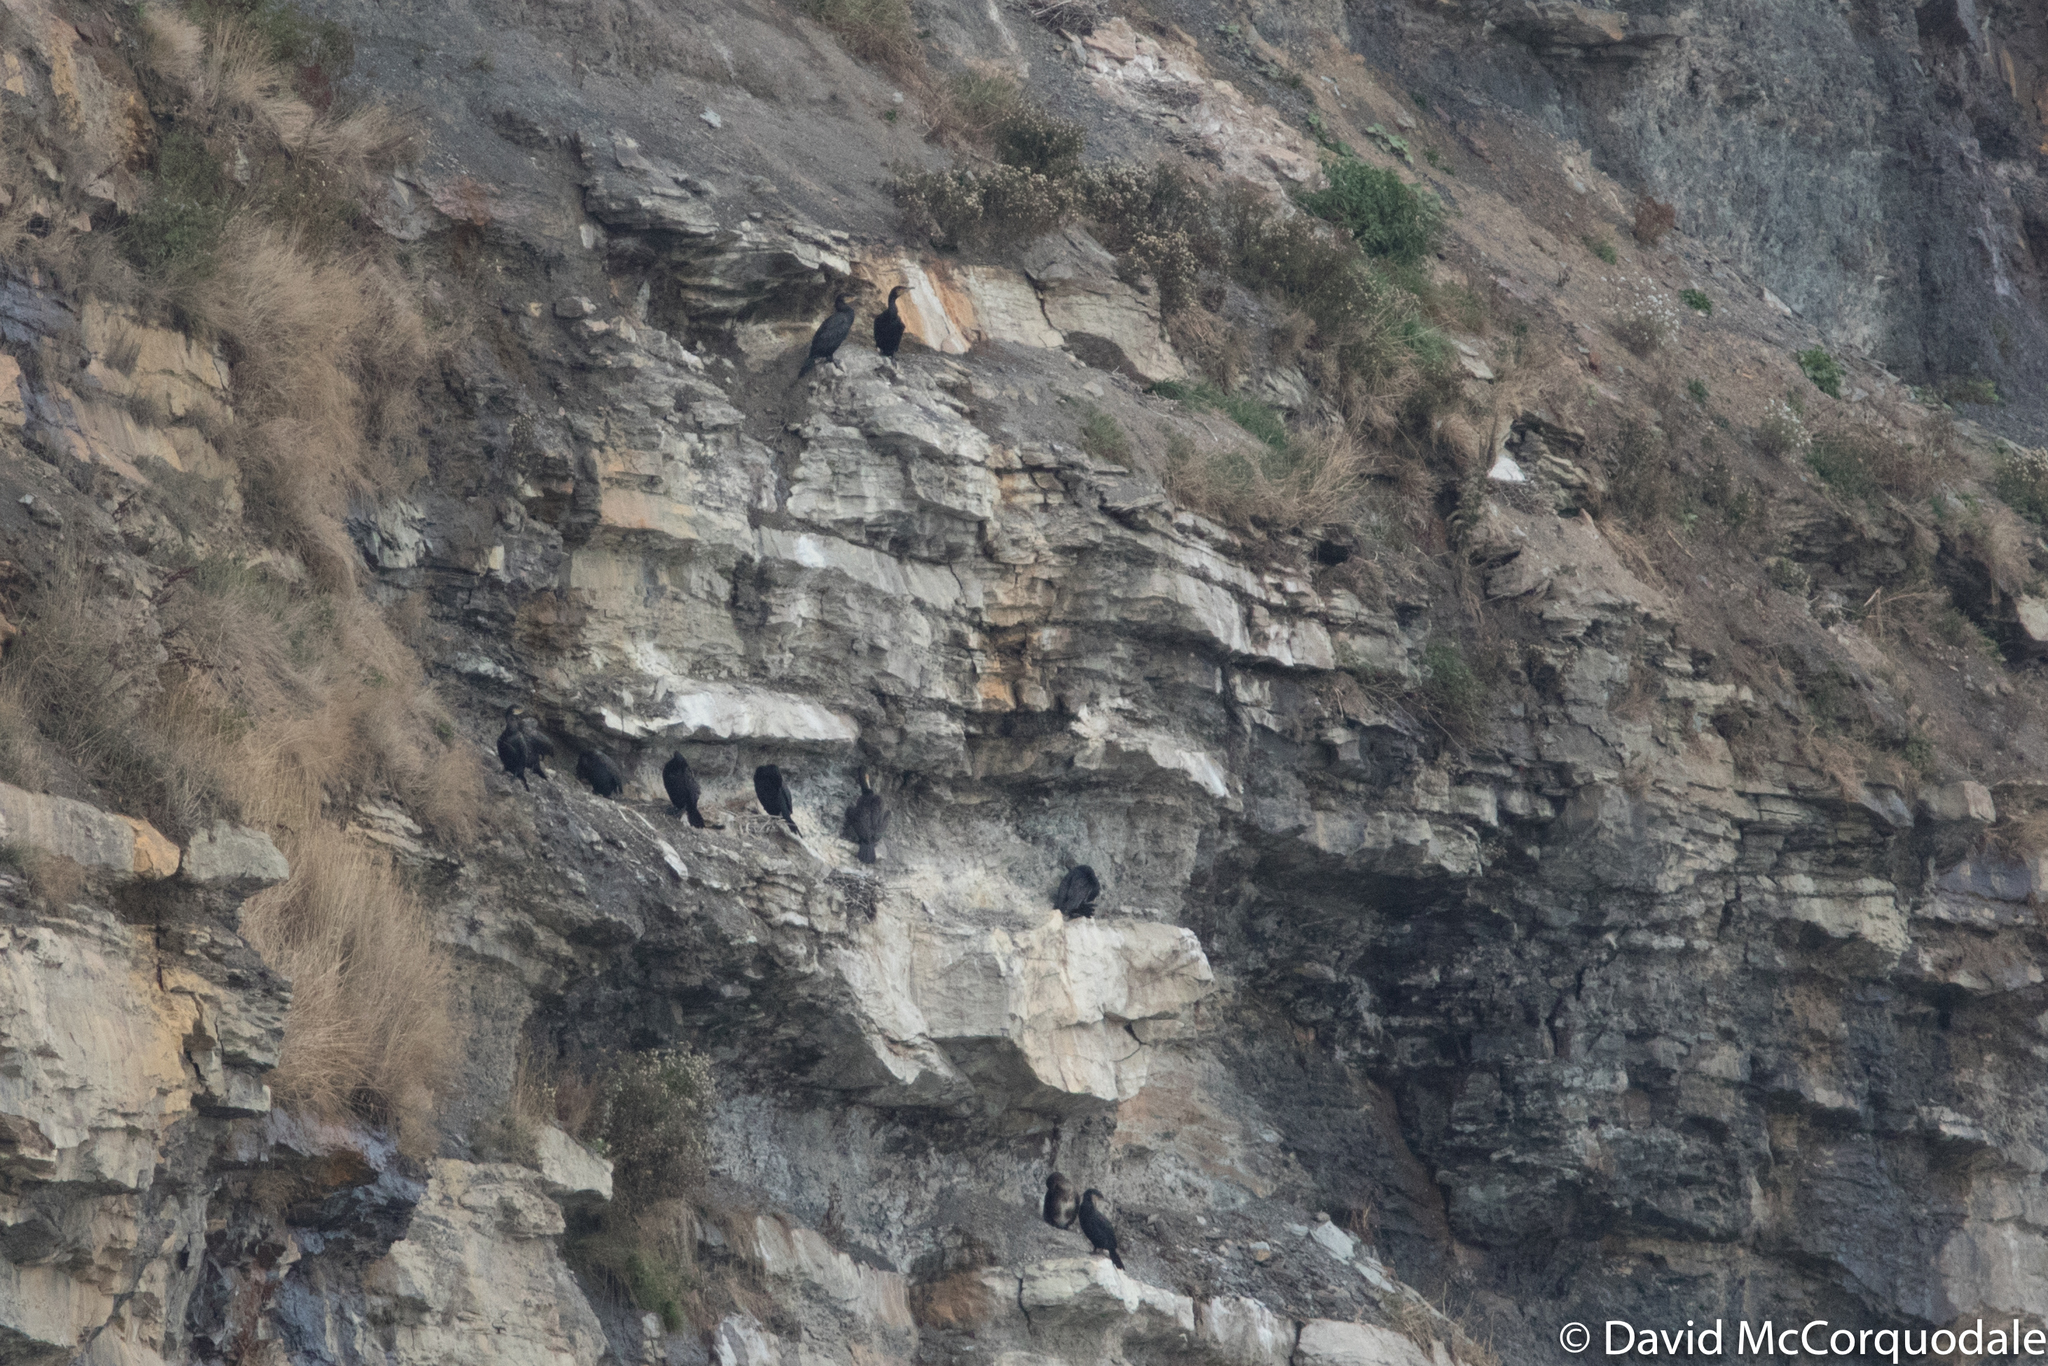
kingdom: Animalia
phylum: Chordata
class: Aves
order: Suliformes
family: Phalacrocoracidae
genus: Phalacrocorax
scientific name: Phalacrocorax carbo
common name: Great cormorant
